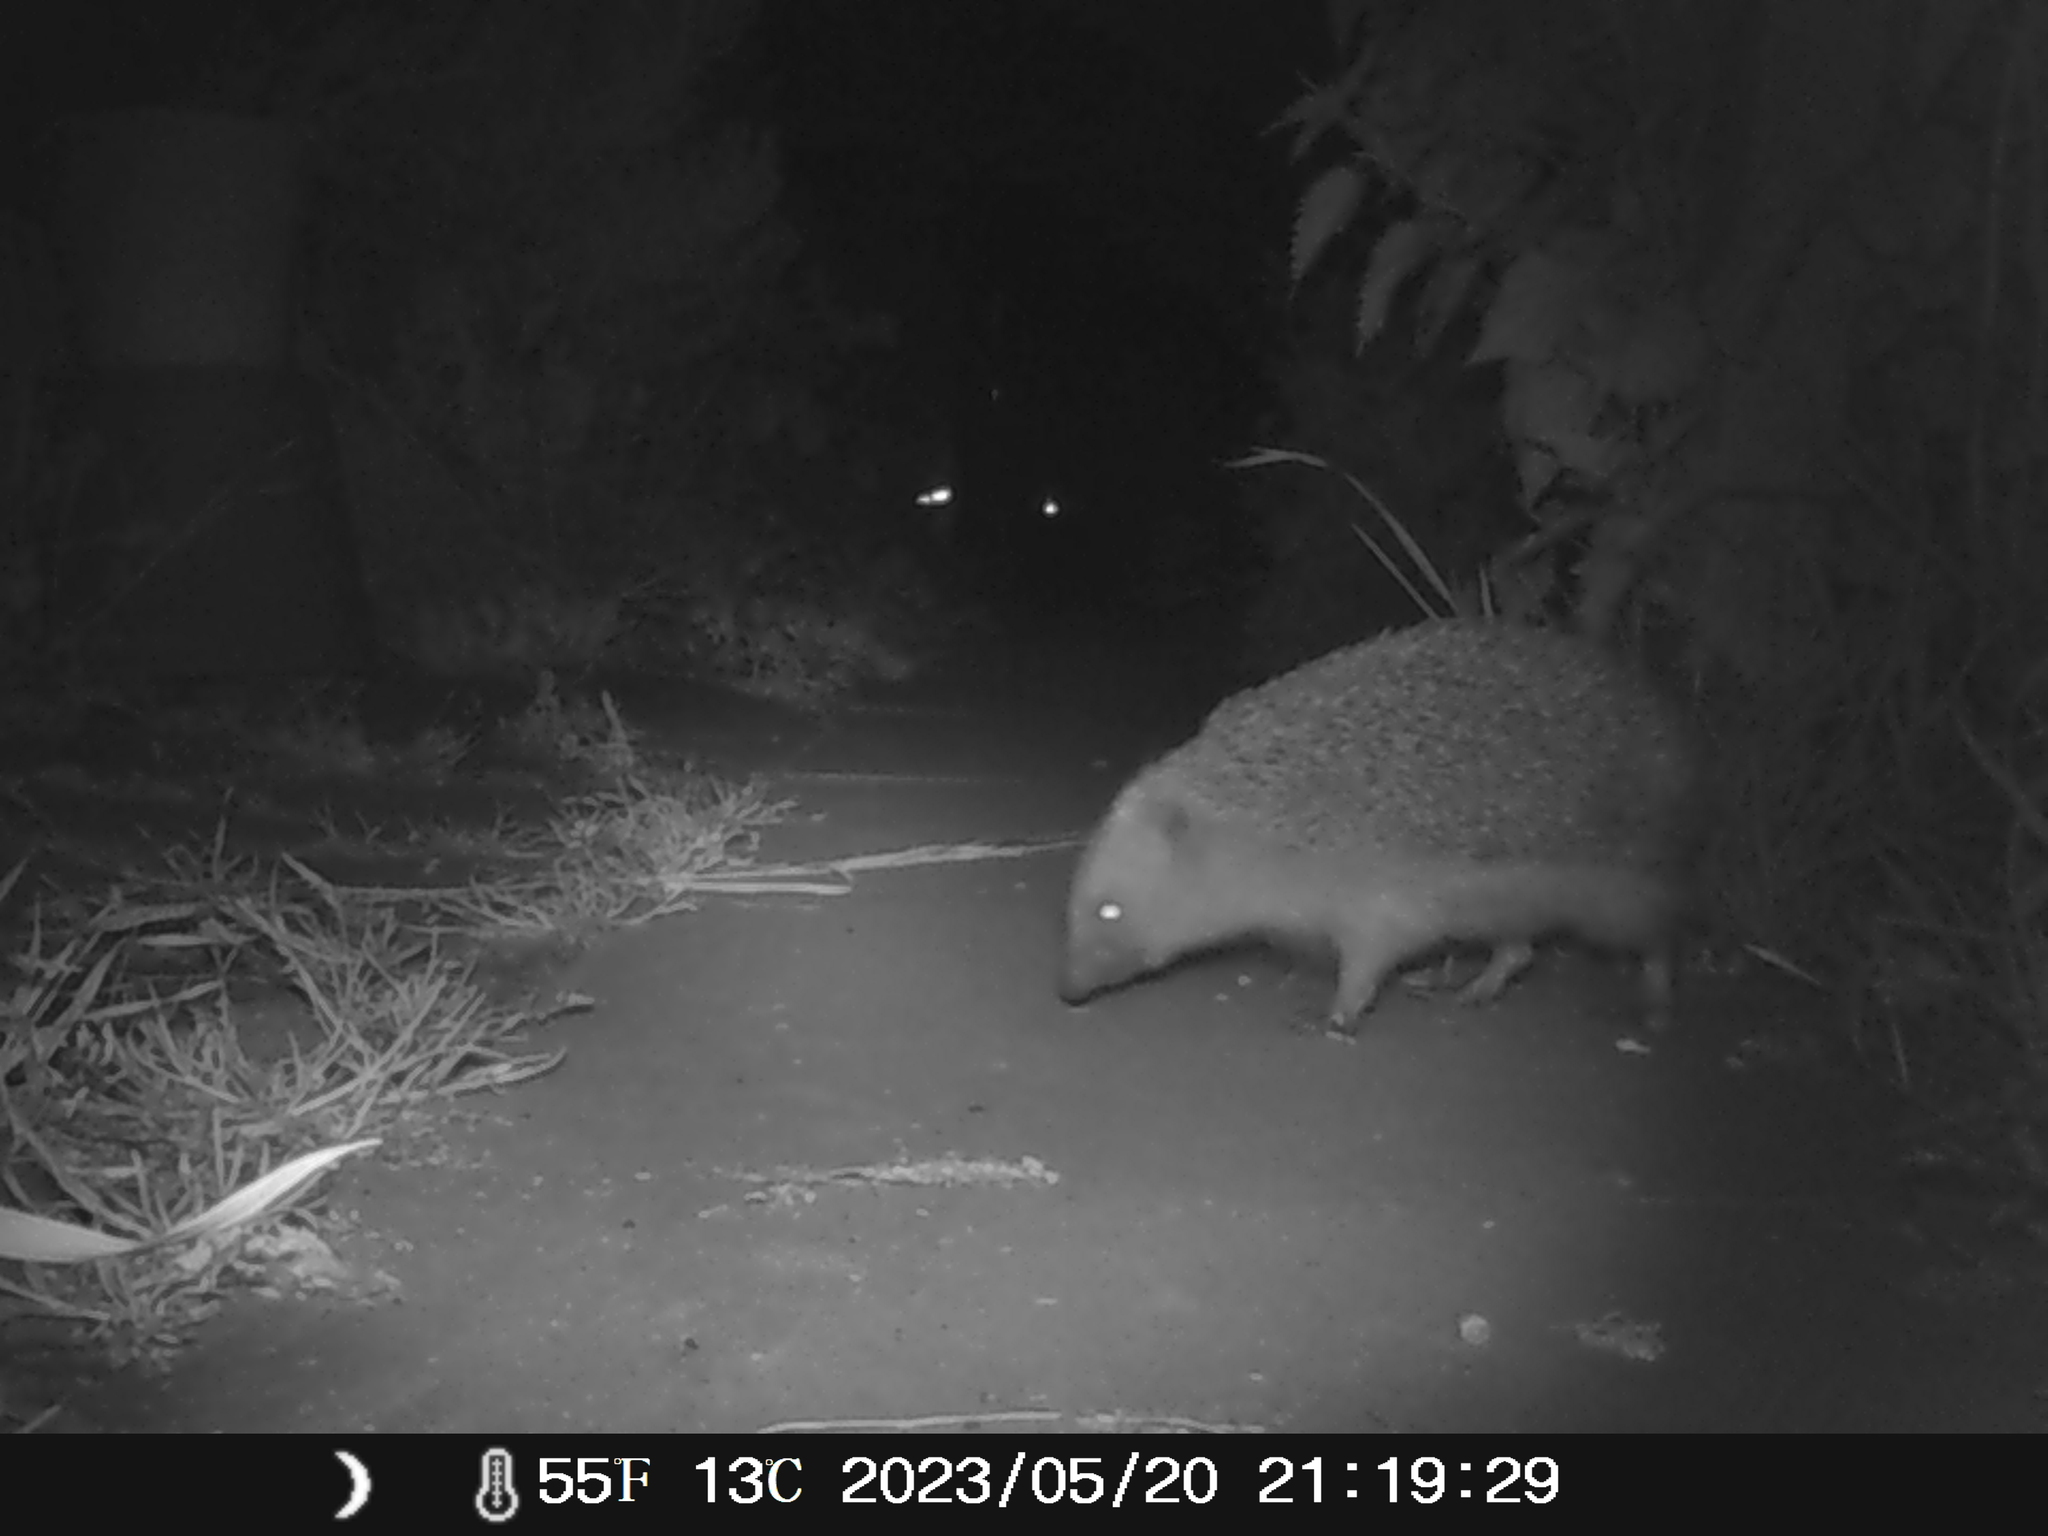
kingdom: Animalia
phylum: Chordata
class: Mammalia
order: Erinaceomorpha
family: Erinaceidae
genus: Erinaceus
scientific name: Erinaceus europaeus
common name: West european hedgehog
